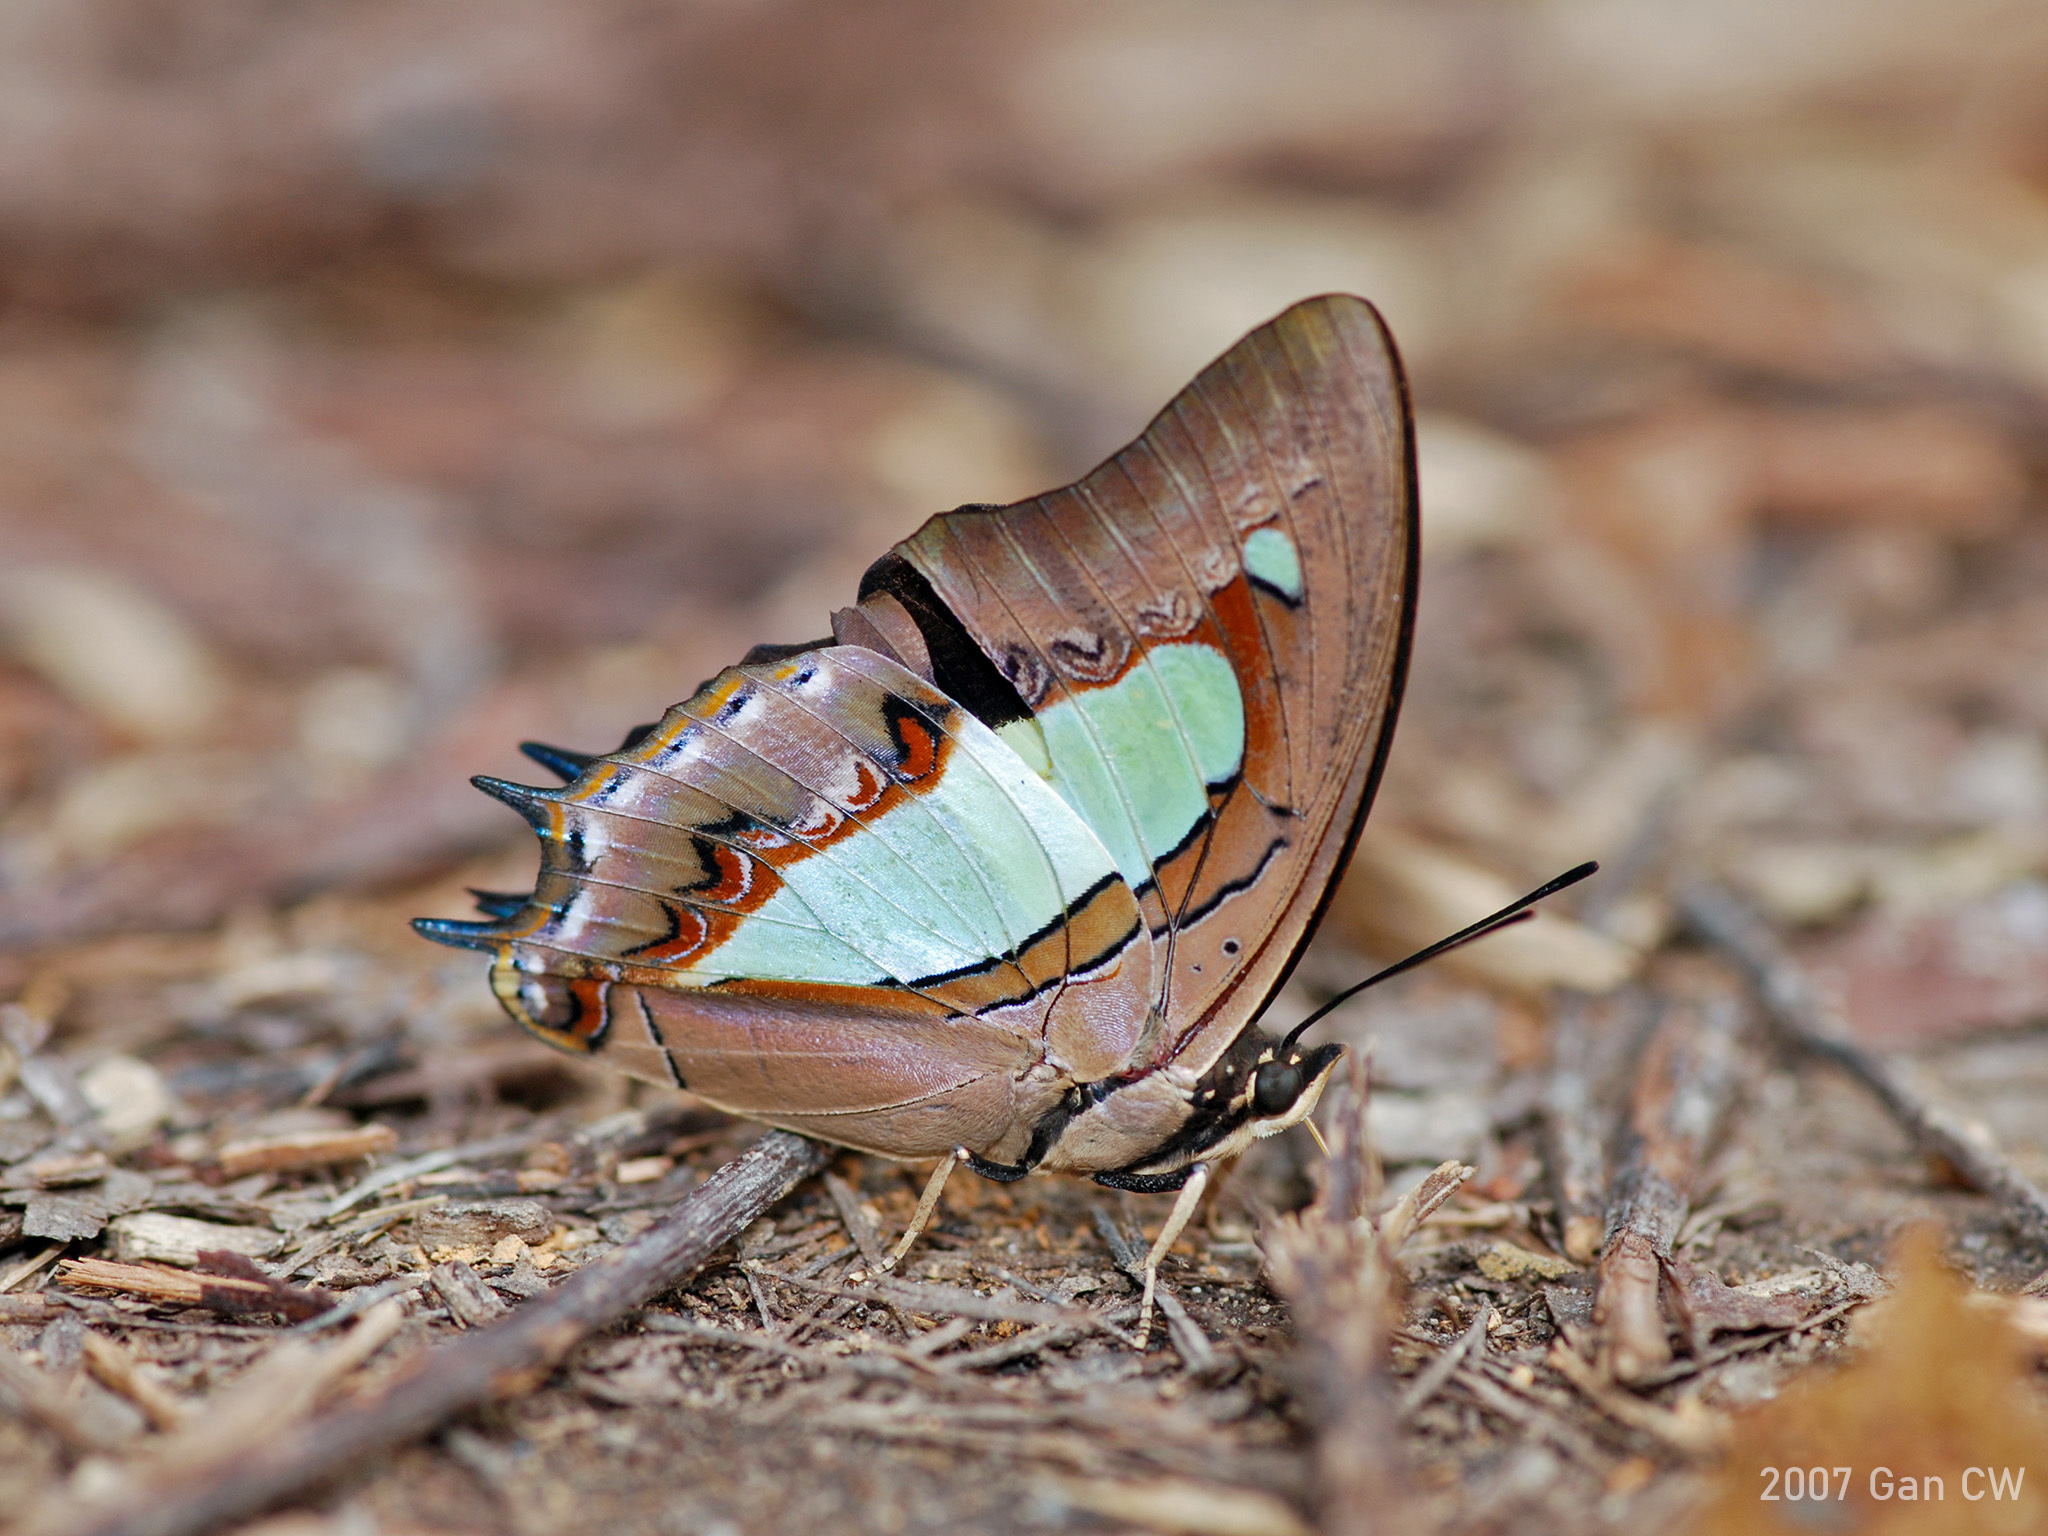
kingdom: Animalia
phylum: Arthropoda
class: Insecta
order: Lepidoptera
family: Nymphalidae
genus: Polyura
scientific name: Polyura athamas
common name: Common nawab
